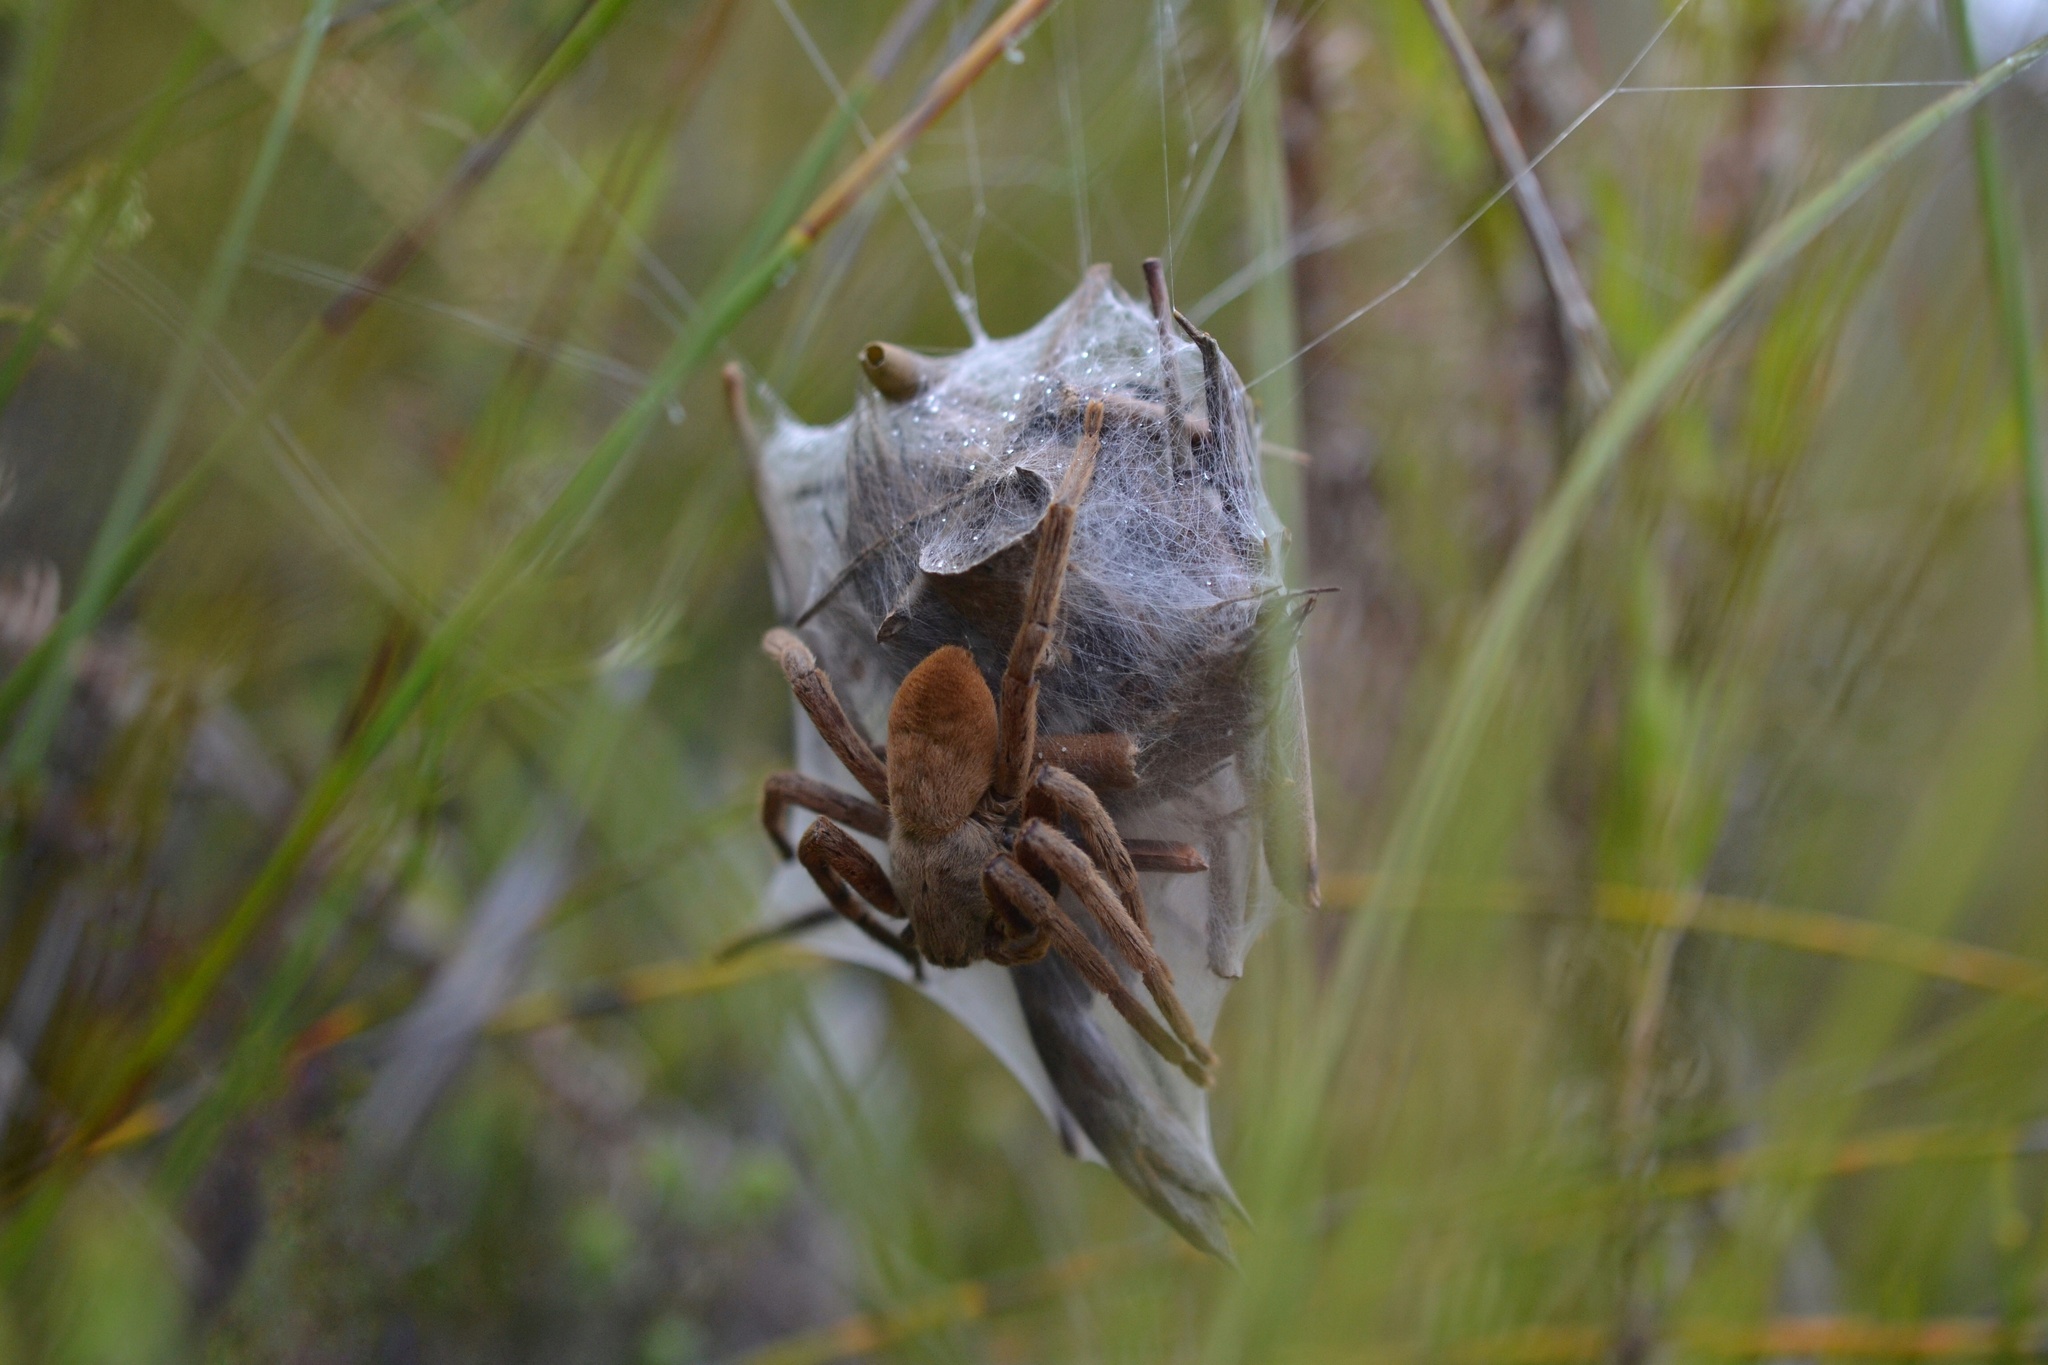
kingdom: Animalia
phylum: Arthropoda
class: Arachnida
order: Araneae
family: Sparassidae
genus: Palystes
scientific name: Palystes superciliosus
